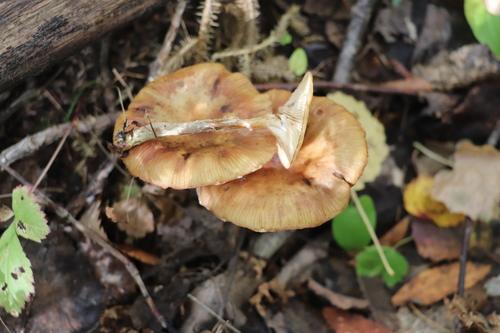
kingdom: Fungi
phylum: Basidiomycota
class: Agaricomycetes
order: Agaricales
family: Physalacriaceae
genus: Armillaria
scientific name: Armillaria cepistipes
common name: Mullet honey fungus
